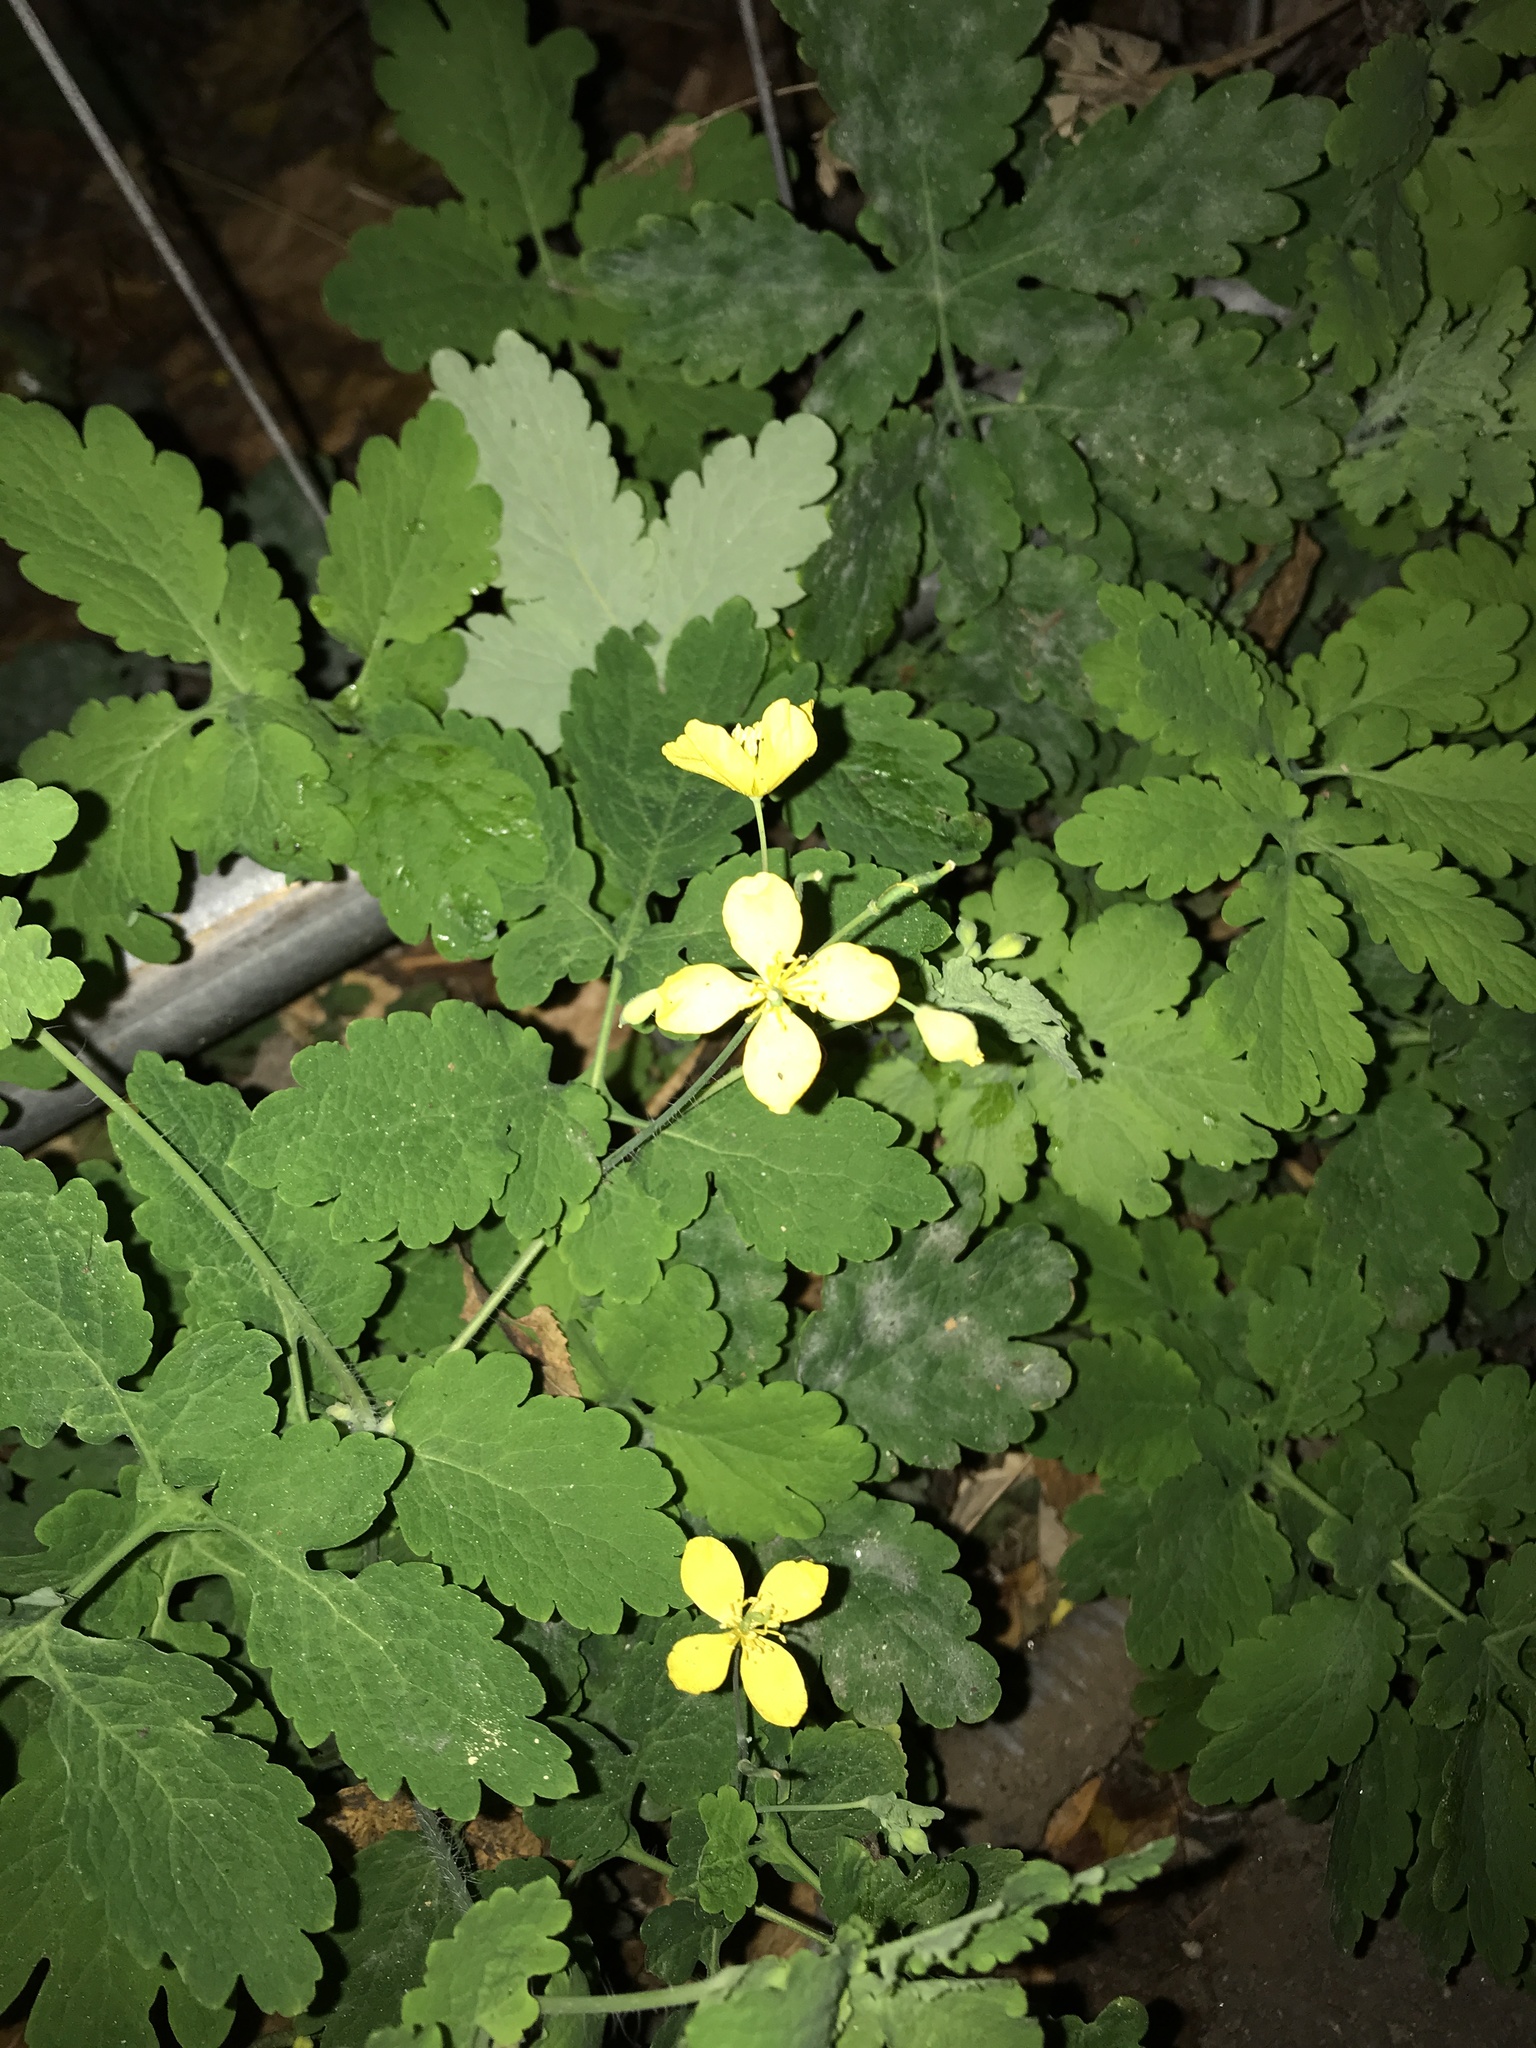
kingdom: Plantae
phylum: Tracheophyta
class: Magnoliopsida
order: Ranunculales
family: Papaveraceae
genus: Chelidonium
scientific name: Chelidonium majus
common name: Greater celandine
